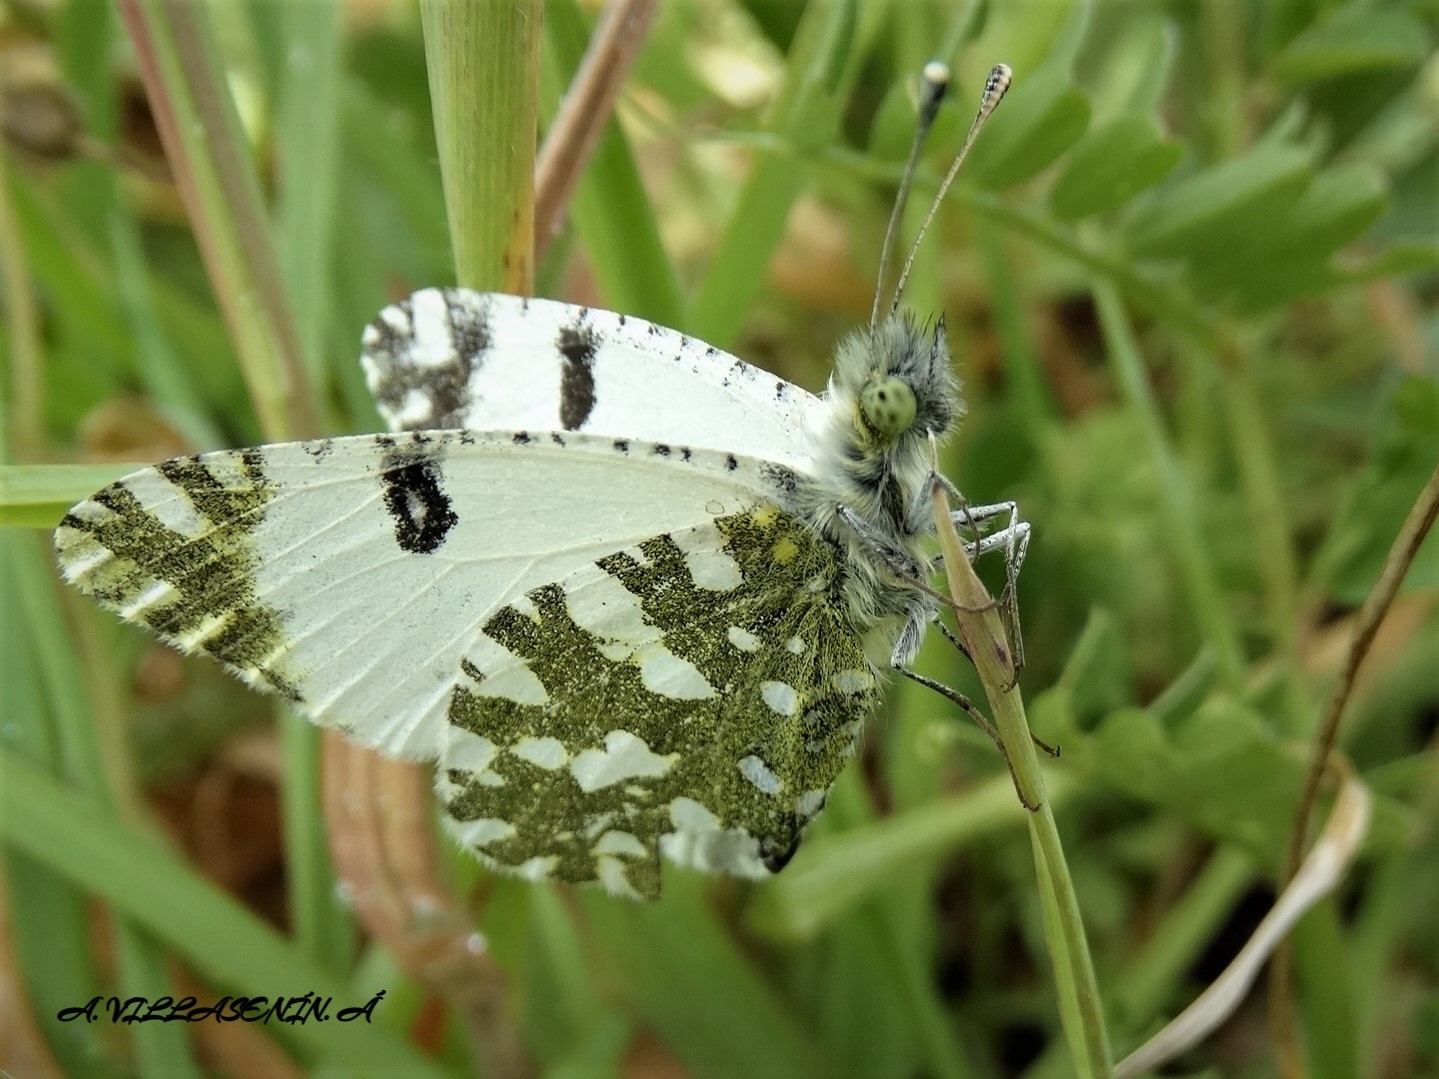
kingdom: Animalia
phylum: Arthropoda
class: Insecta
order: Lepidoptera
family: Pieridae
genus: Euchloe
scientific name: Euchloe crameri
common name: Western dappled white
